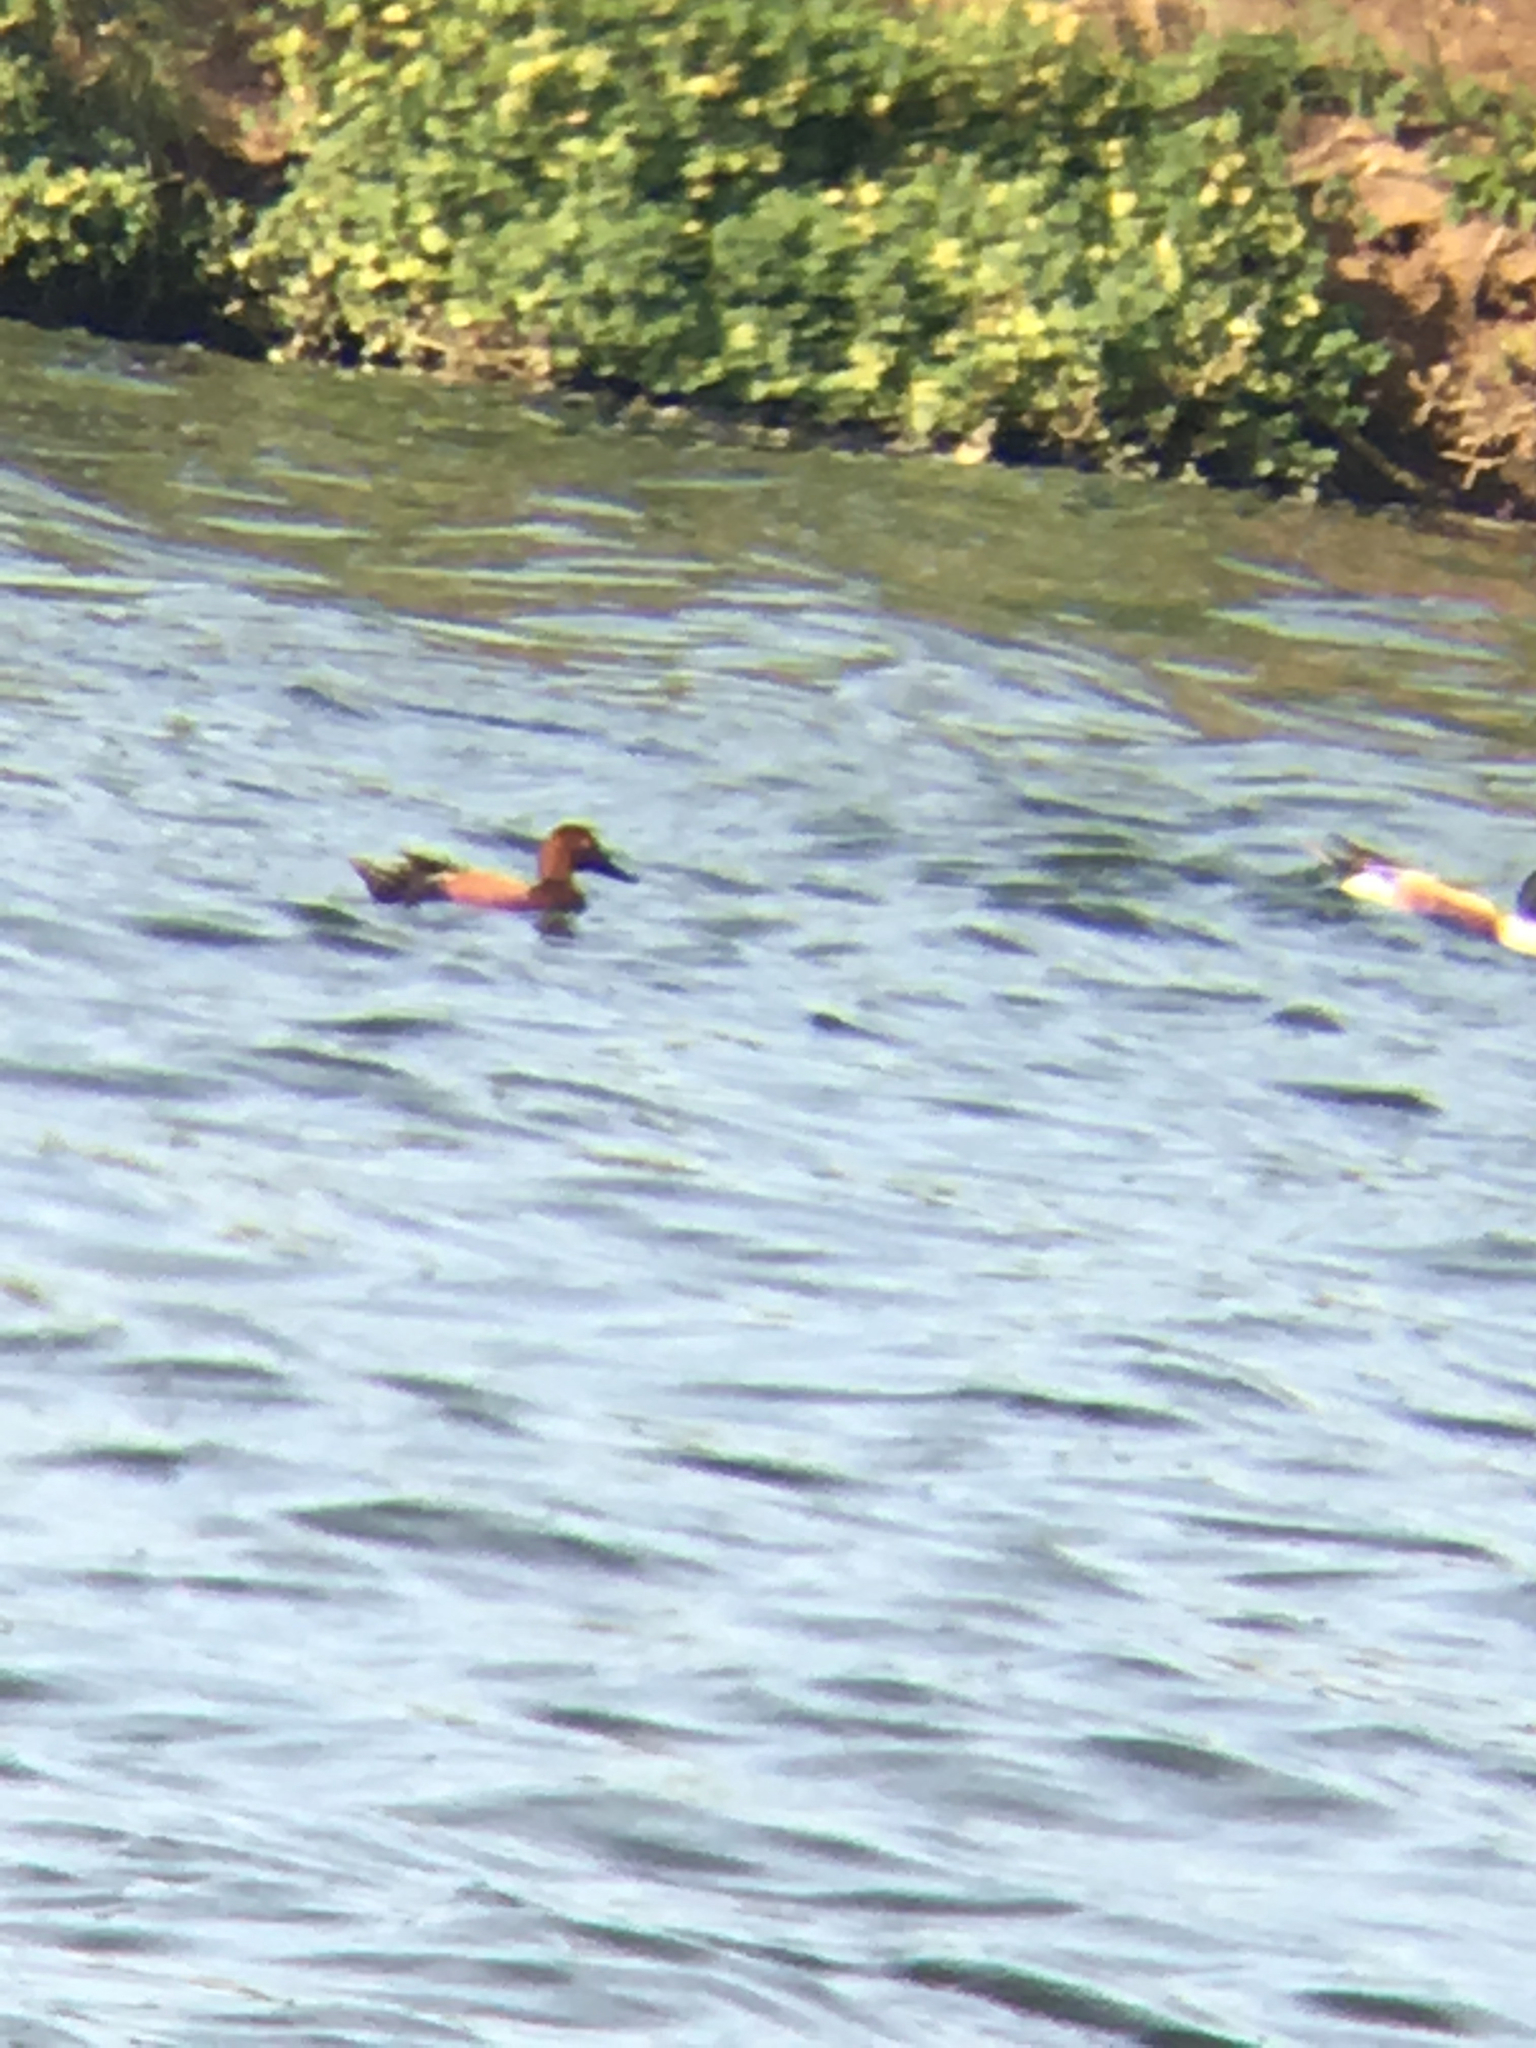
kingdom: Animalia
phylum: Chordata
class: Aves
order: Anseriformes
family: Anatidae
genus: Spatula
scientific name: Spatula cyanoptera
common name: Cinnamon teal
